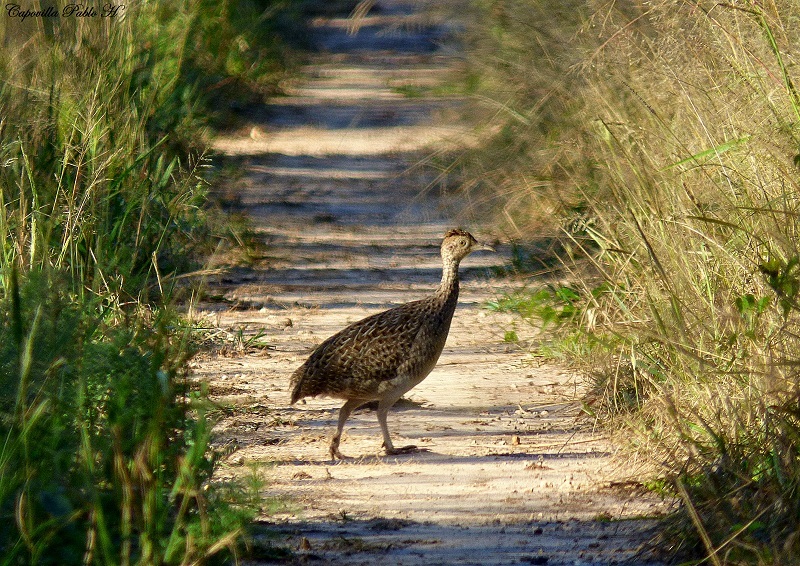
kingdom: Animalia
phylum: Chordata
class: Aves
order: Tinamiformes
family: Tinamidae
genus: Nothoprocta
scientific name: Nothoprocta cinerascens
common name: Brushland tinamou
